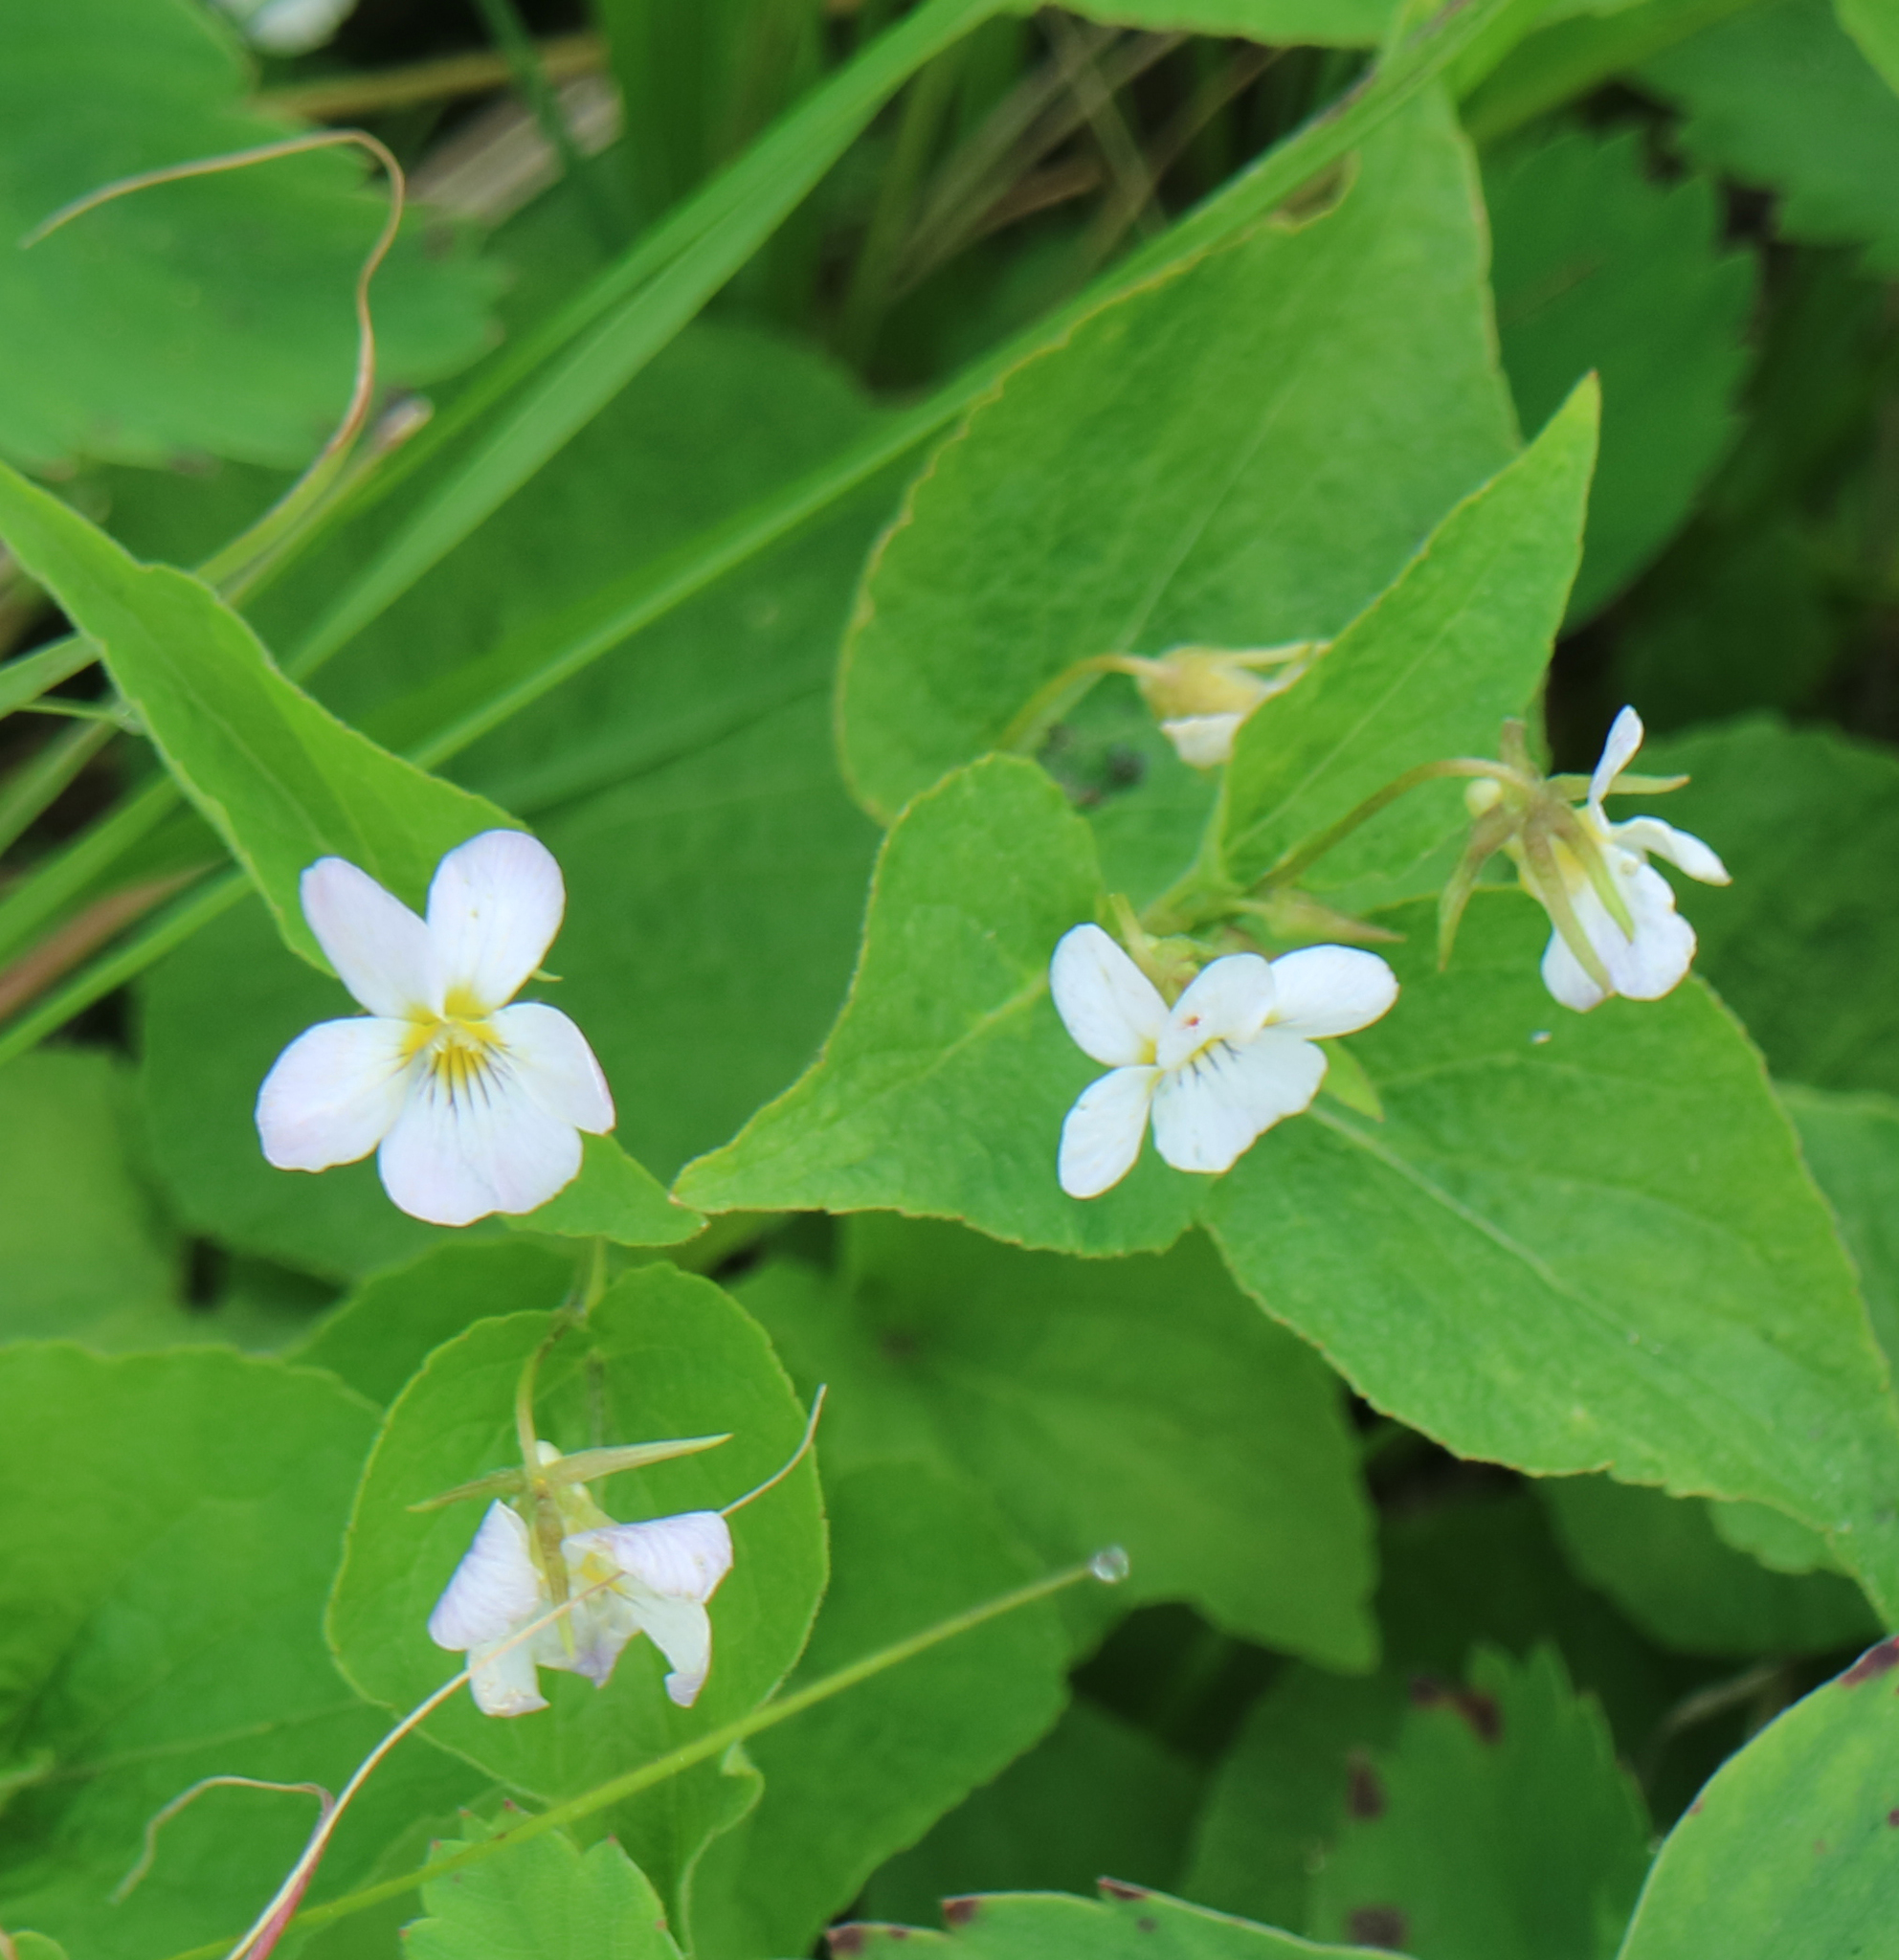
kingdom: Plantae
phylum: Tracheophyta
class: Magnoliopsida
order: Malpighiales
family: Violaceae
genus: Viola
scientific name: Viola canadensis
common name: Canada violet
